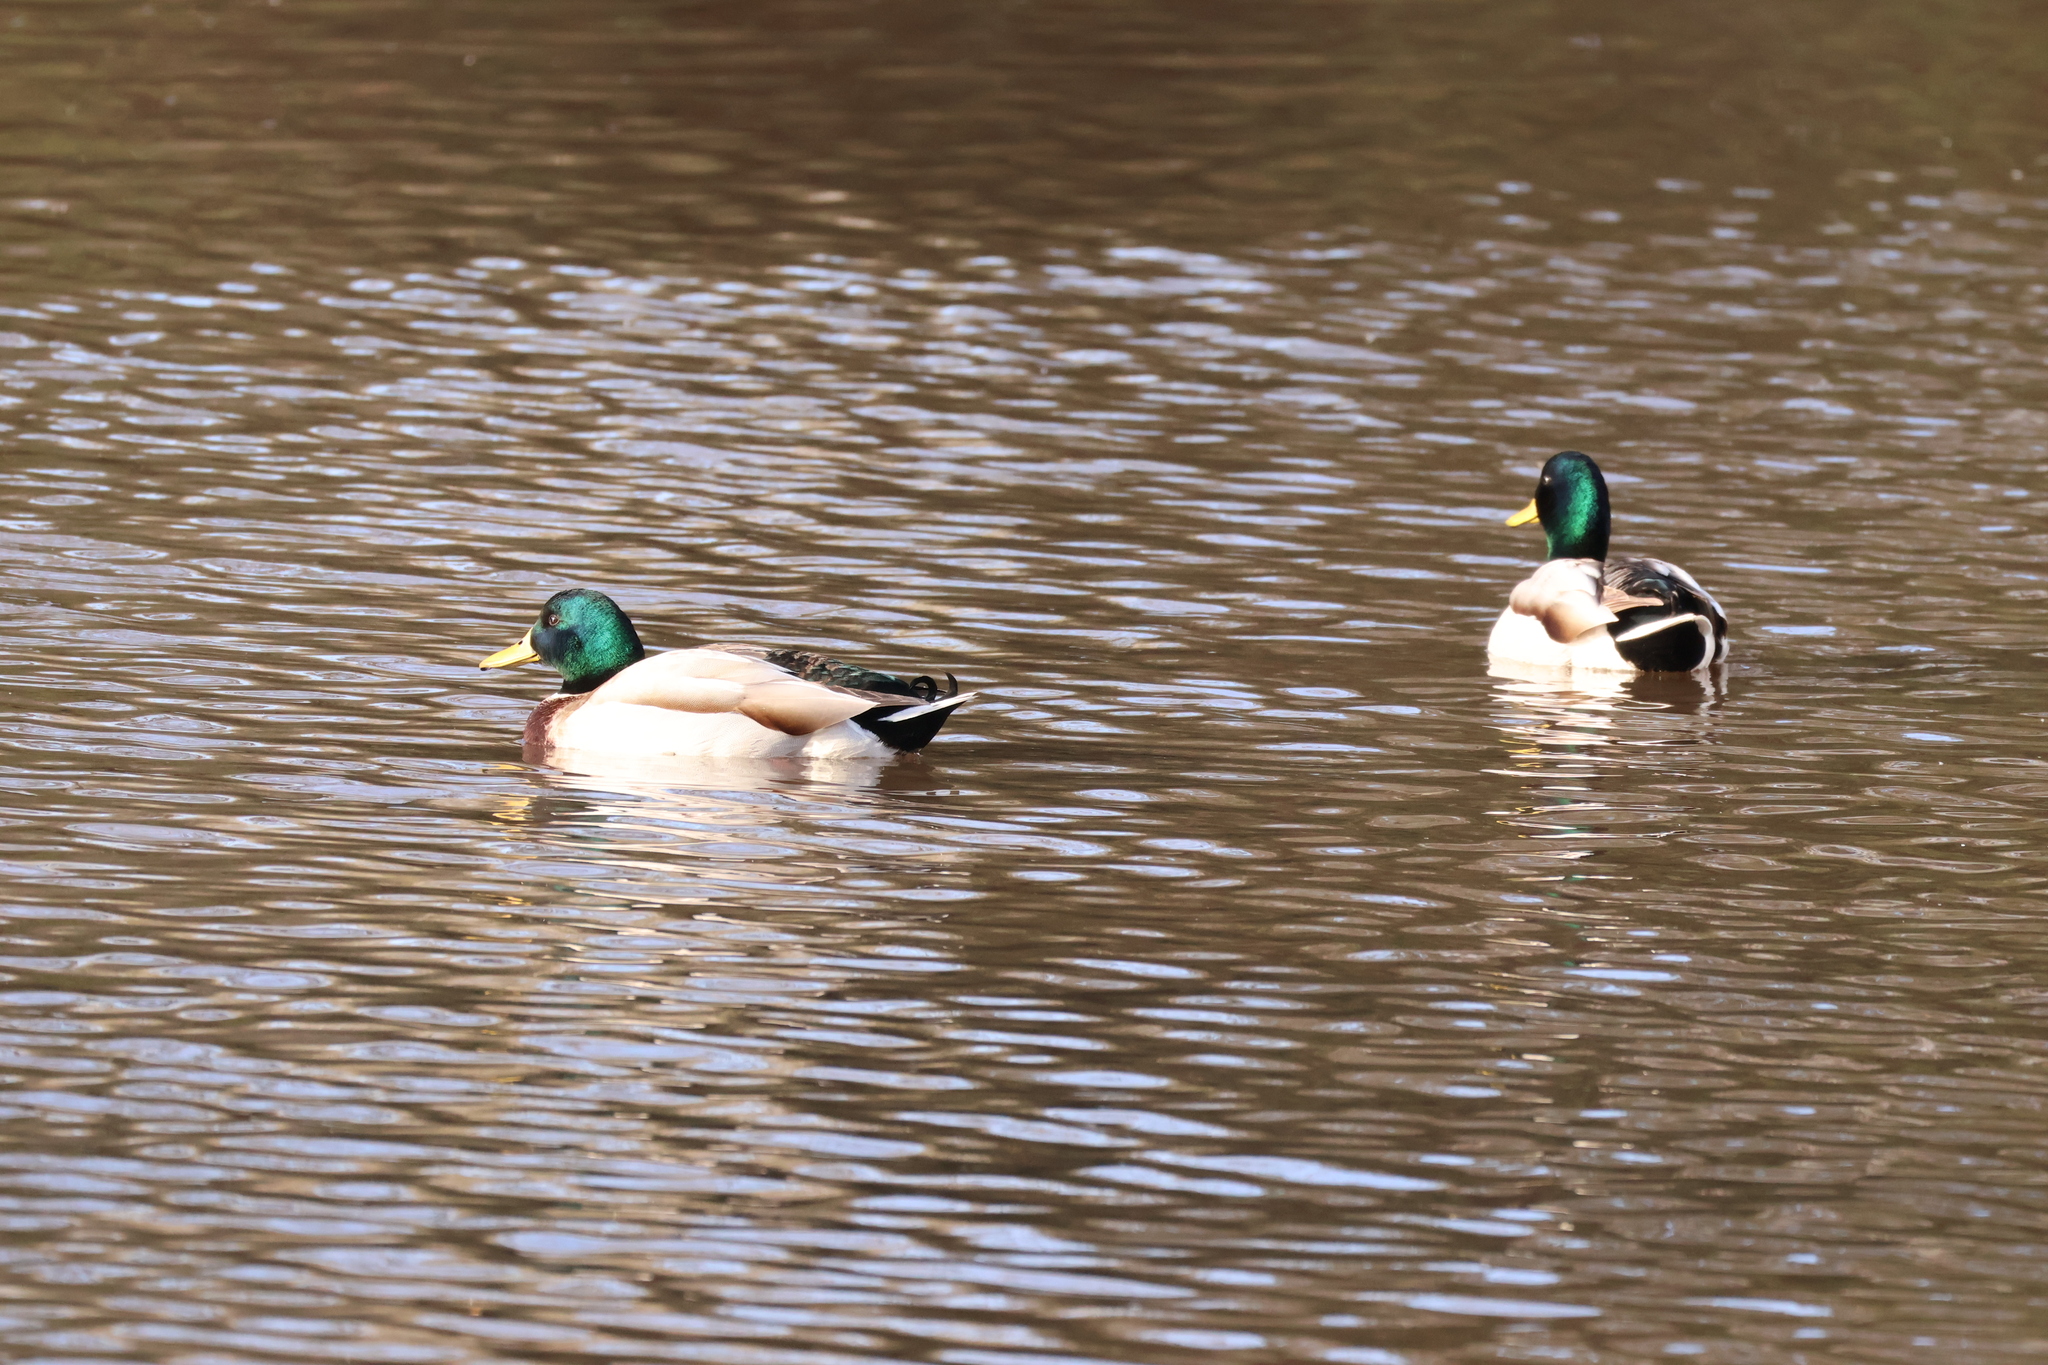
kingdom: Animalia
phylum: Chordata
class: Aves
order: Anseriformes
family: Anatidae
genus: Anas
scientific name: Anas platyrhynchos
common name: Mallard
